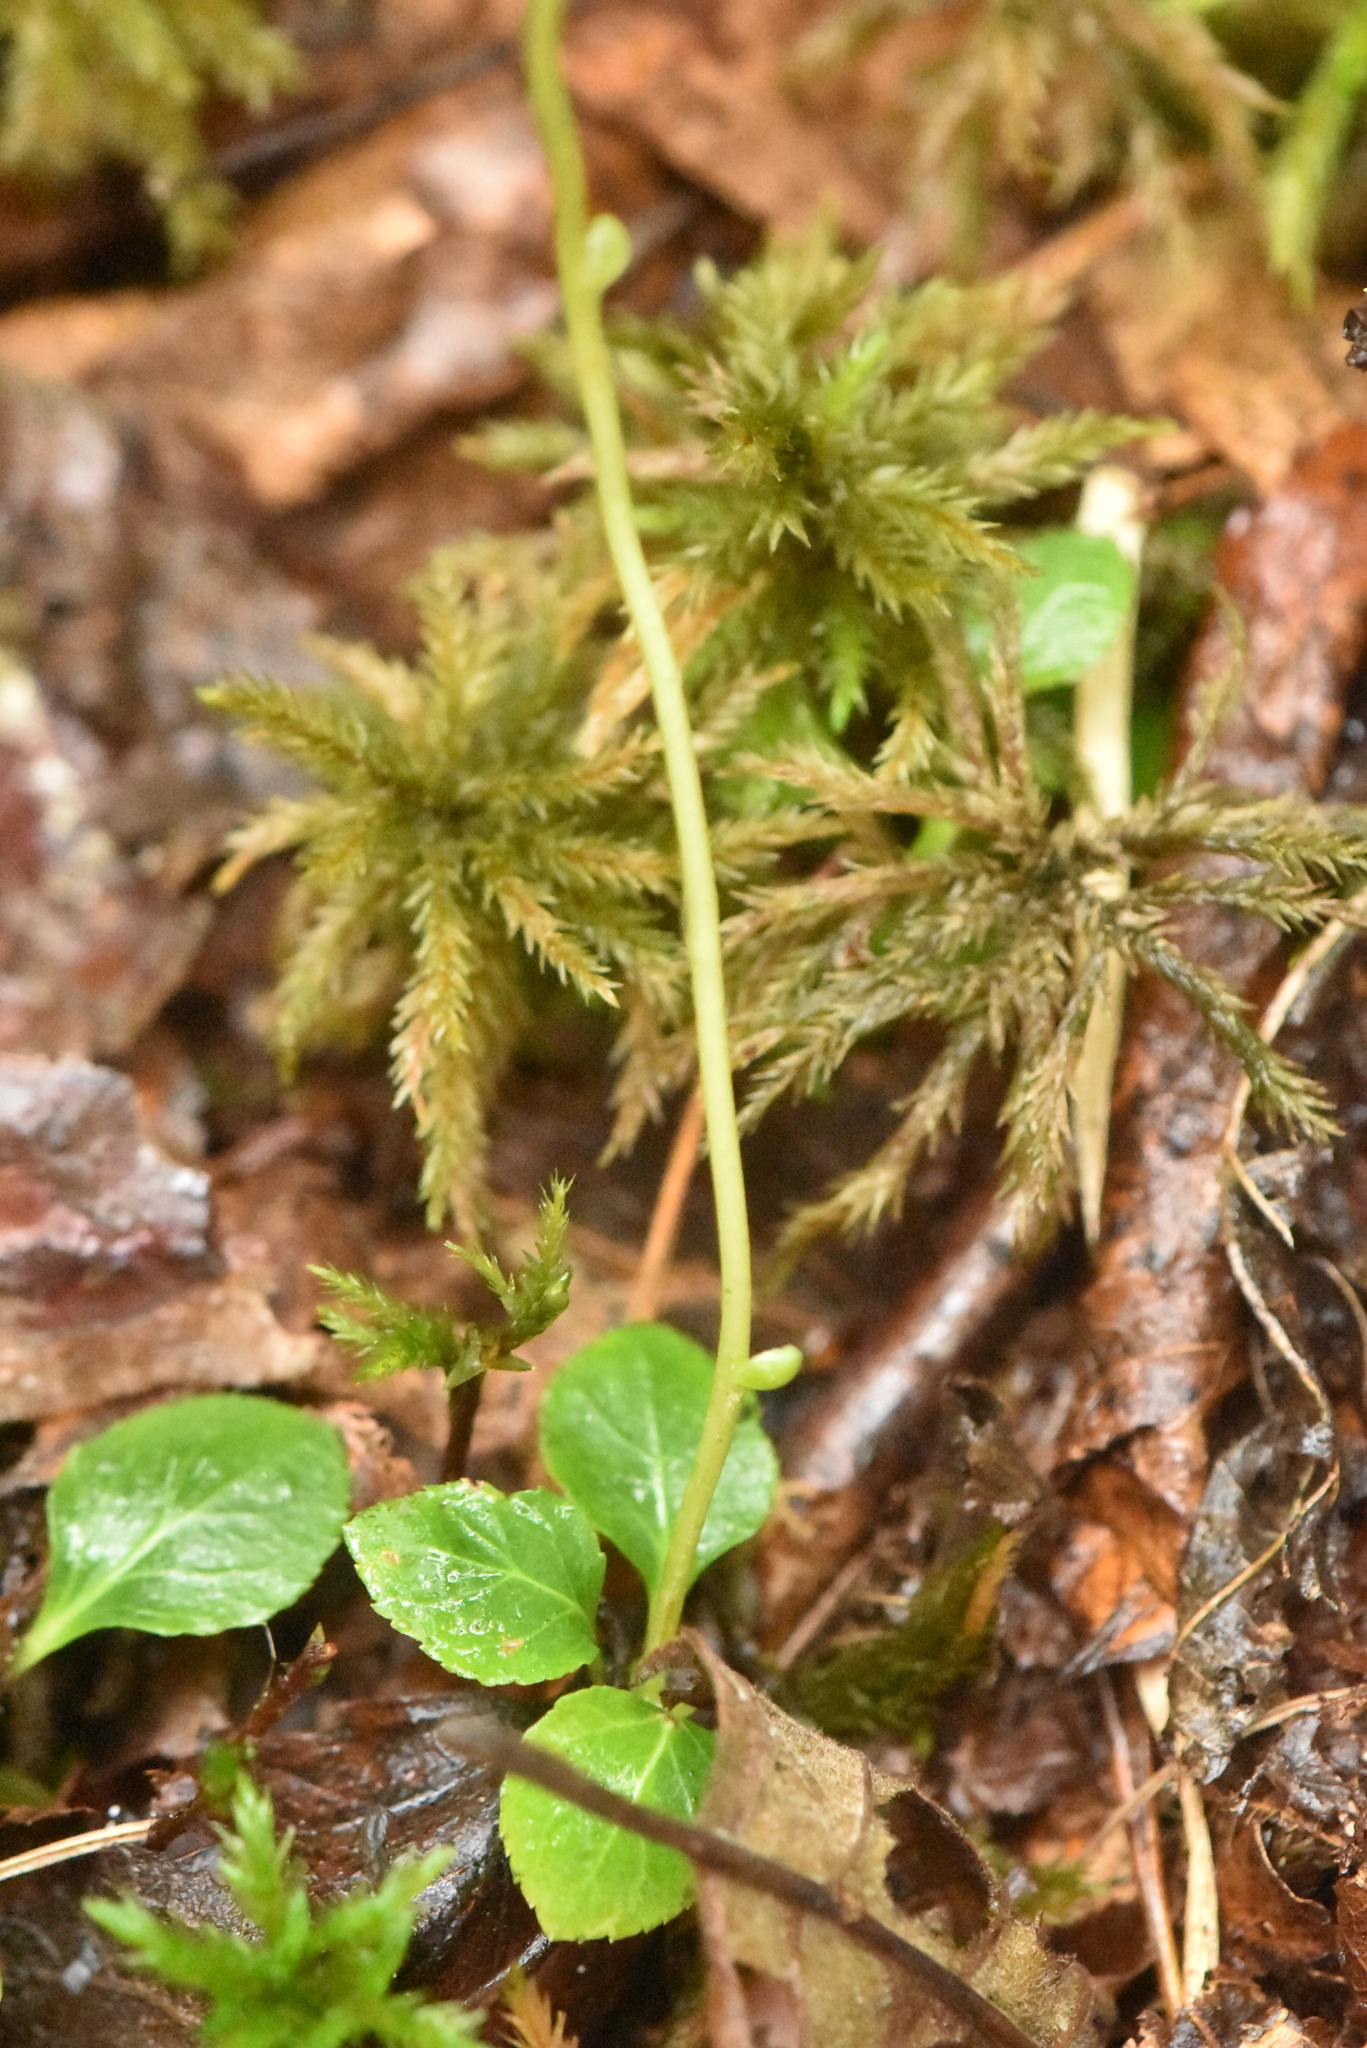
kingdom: Plantae
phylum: Tracheophyta
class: Magnoliopsida
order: Ericales
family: Ericaceae
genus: Moneses
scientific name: Moneses uniflora
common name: One-flowered wintergreen
